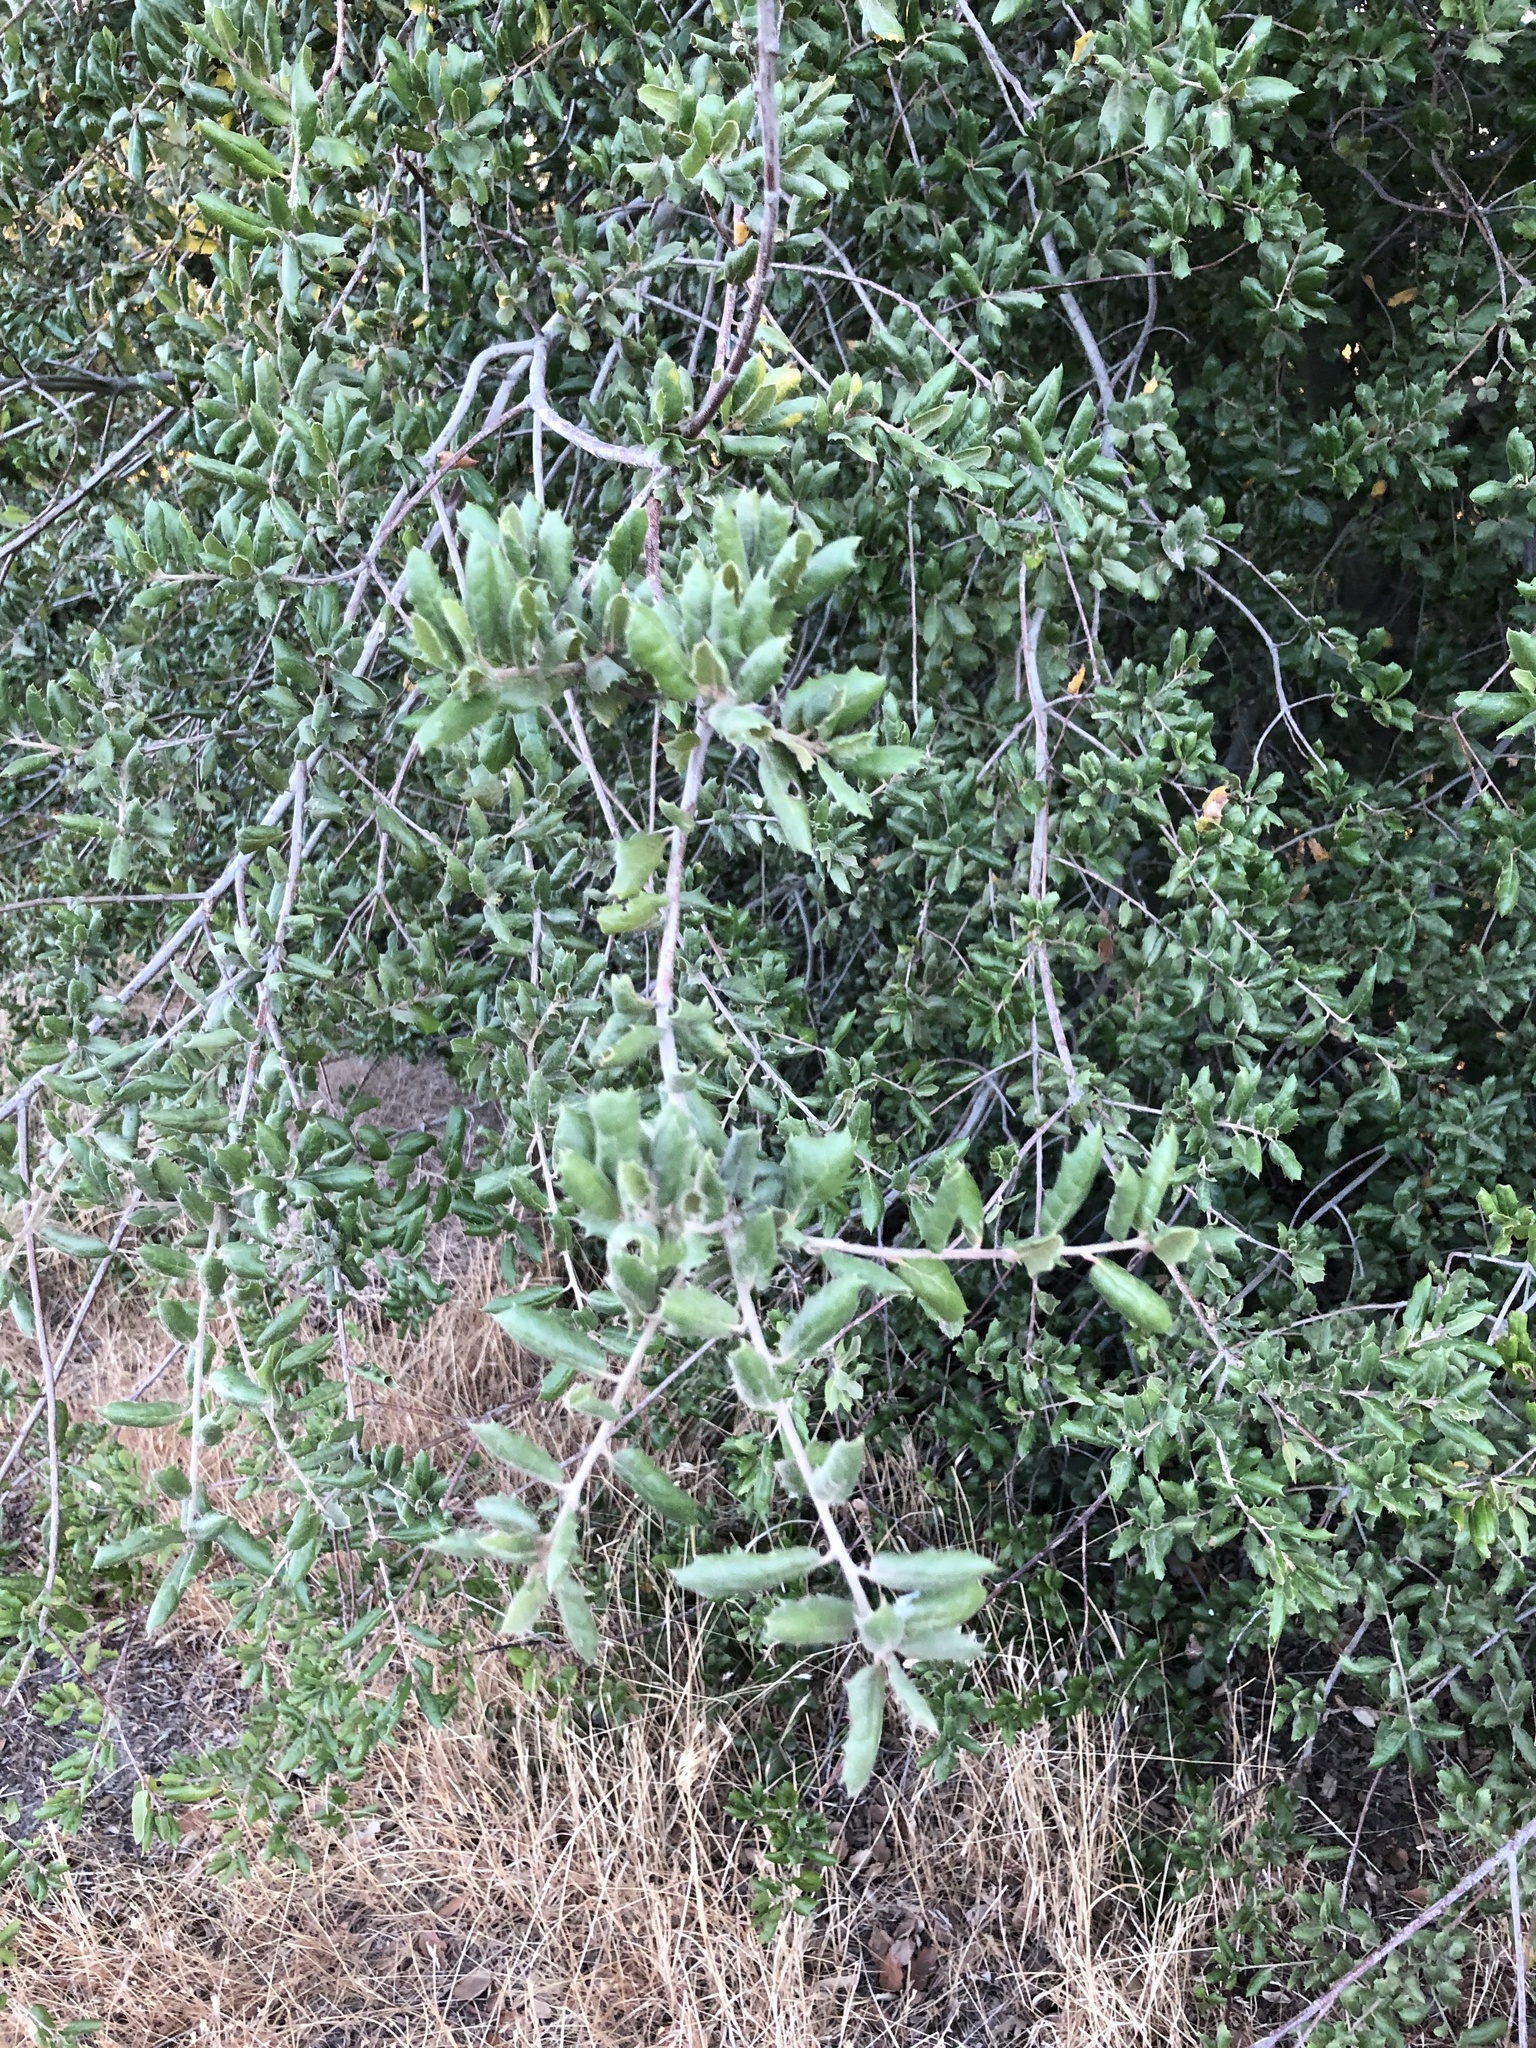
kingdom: Plantae
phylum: Tracheophyta
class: Magnoliopsida
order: Fagales
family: Fagaceae
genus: Quercus
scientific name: Quercus agrifolia
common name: California live oak
